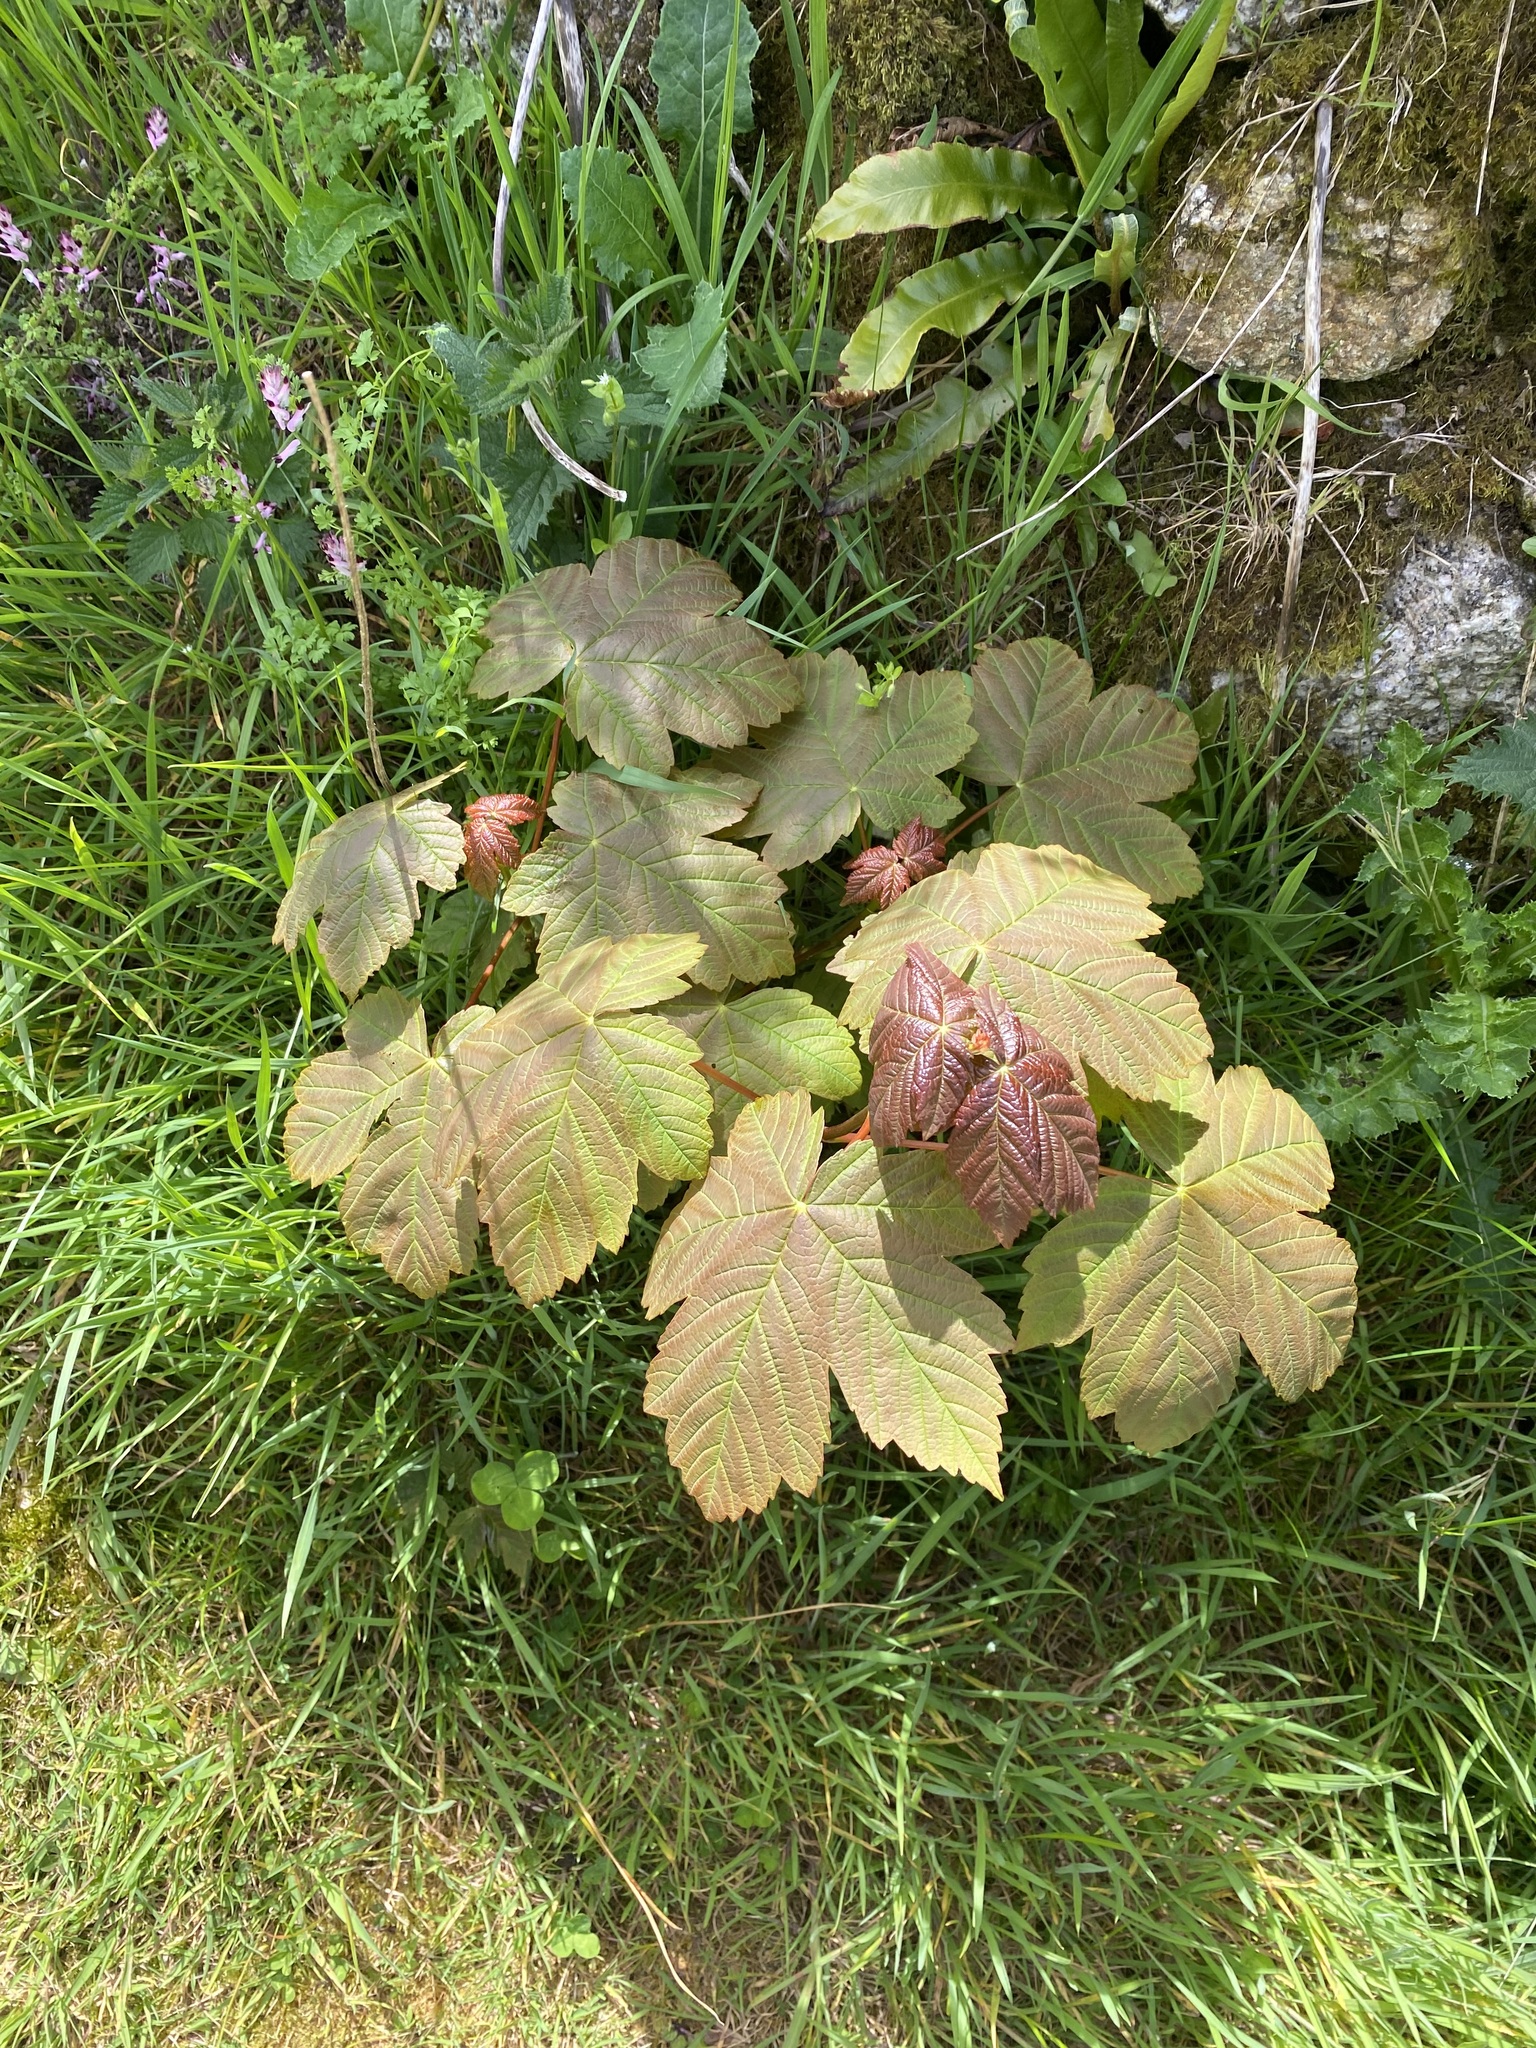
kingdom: Plantae
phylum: Tracheophyta
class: Magnoliopsida
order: Sapindales
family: Sapindaceae
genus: Acer
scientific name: Acer pseudoplatanus
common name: Sycamore
